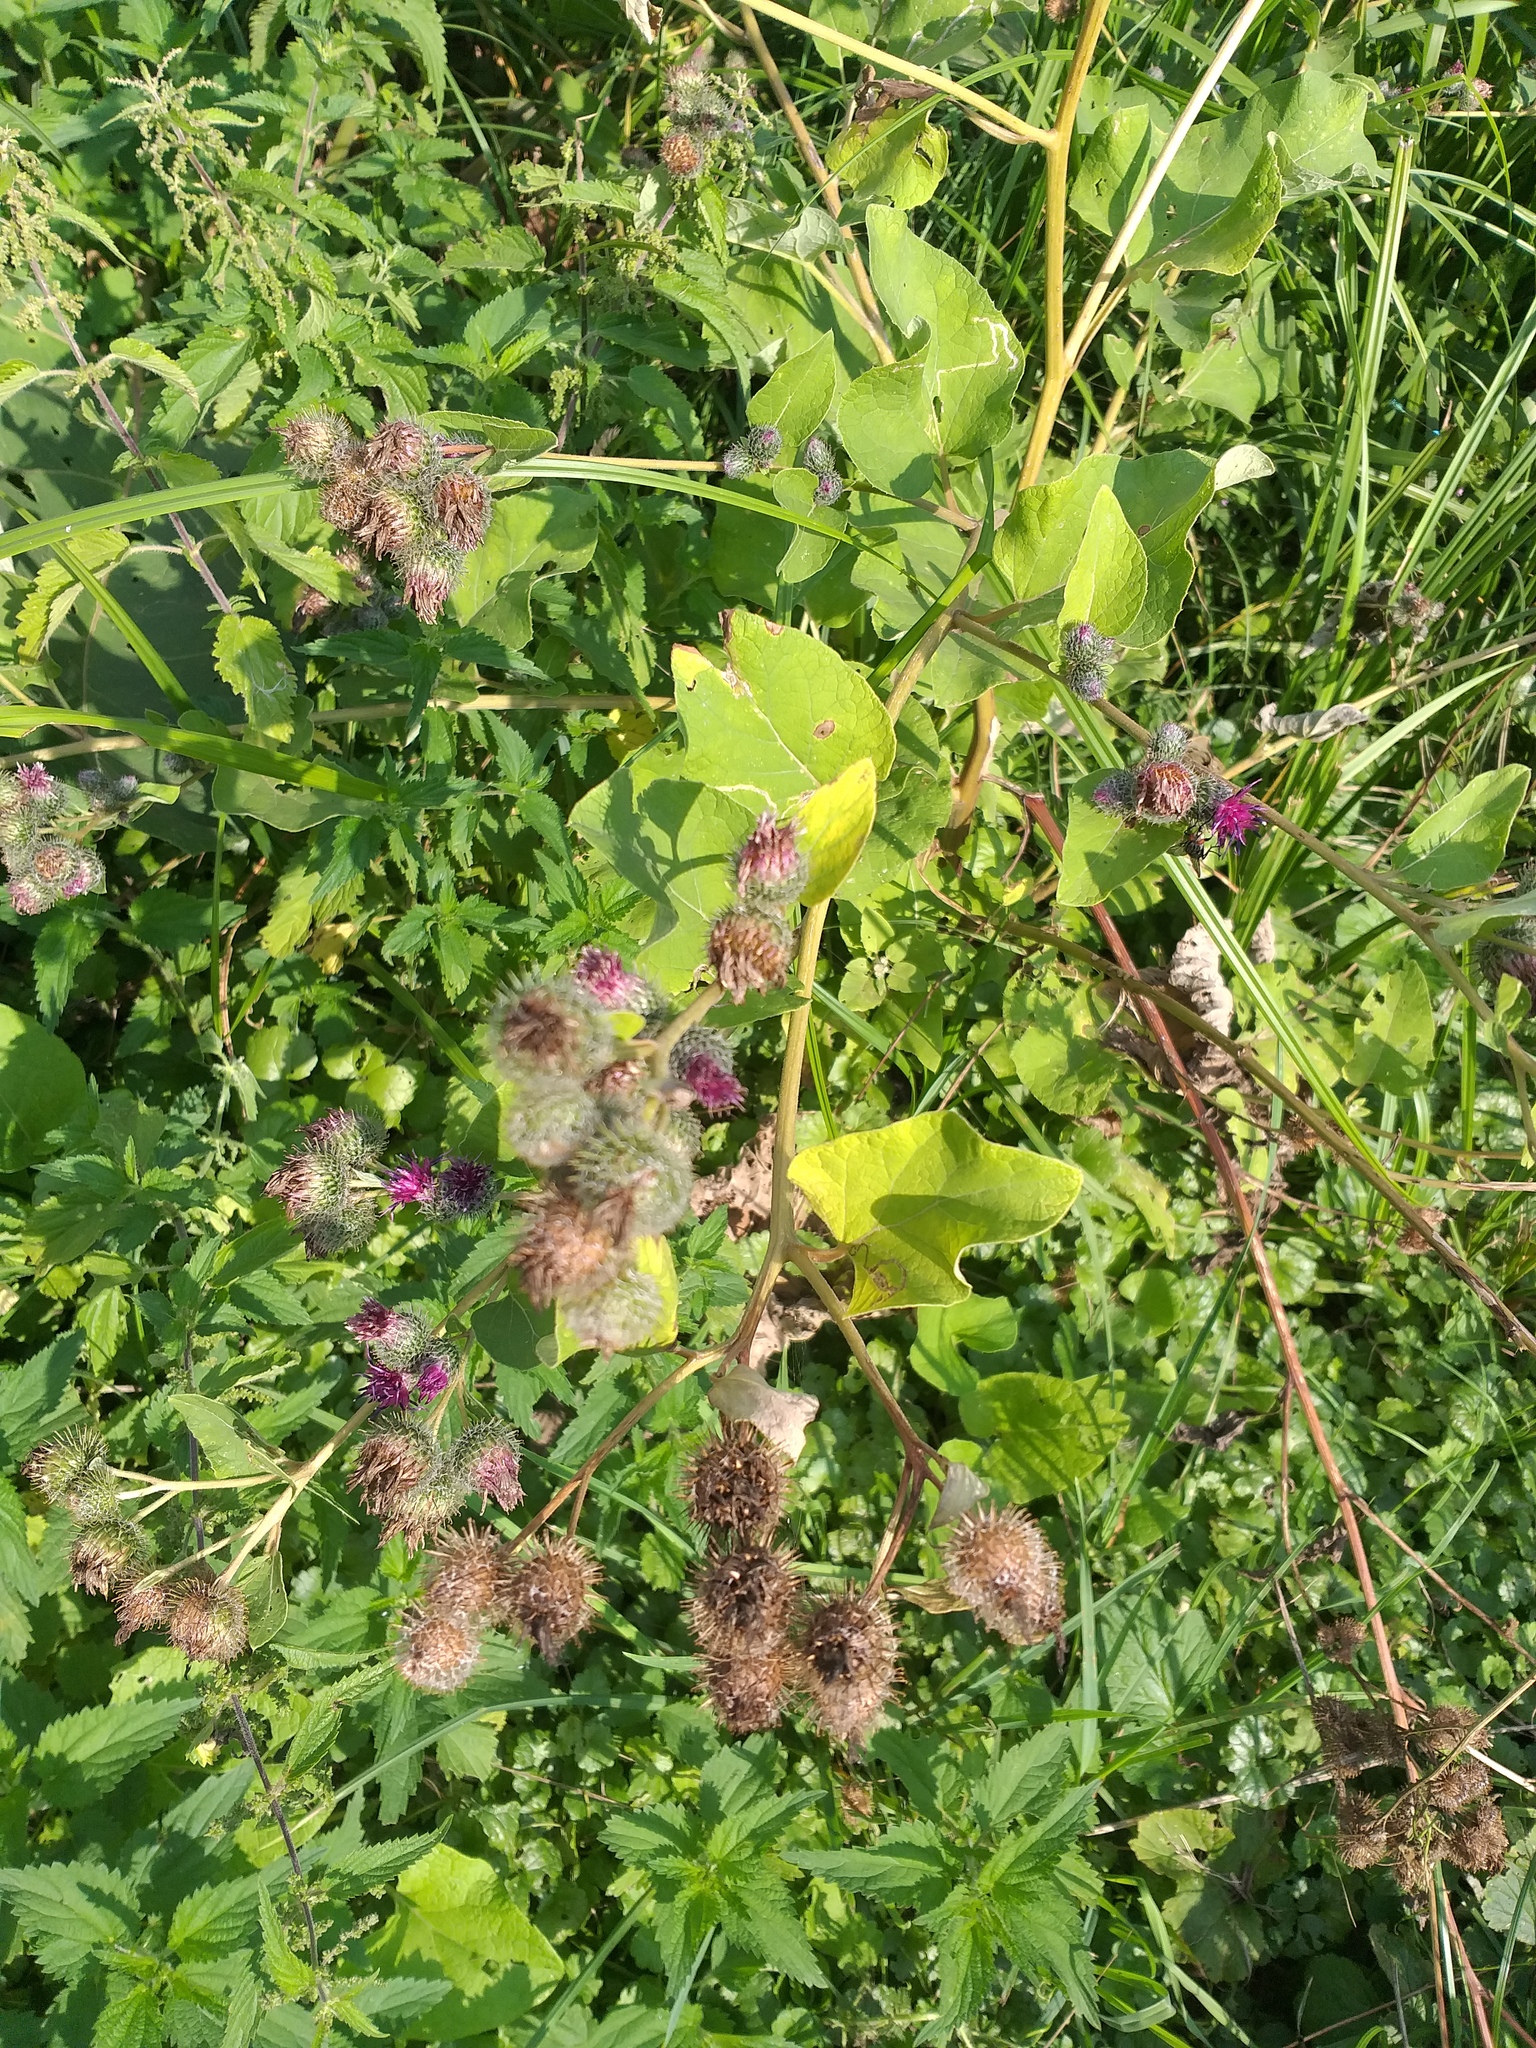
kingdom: Plantae
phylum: Tracheophyta
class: Magnoliopsida
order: Asterales
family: Asteraceae
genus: Arctium
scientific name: Arctium tomentosum
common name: Woolly burdock
